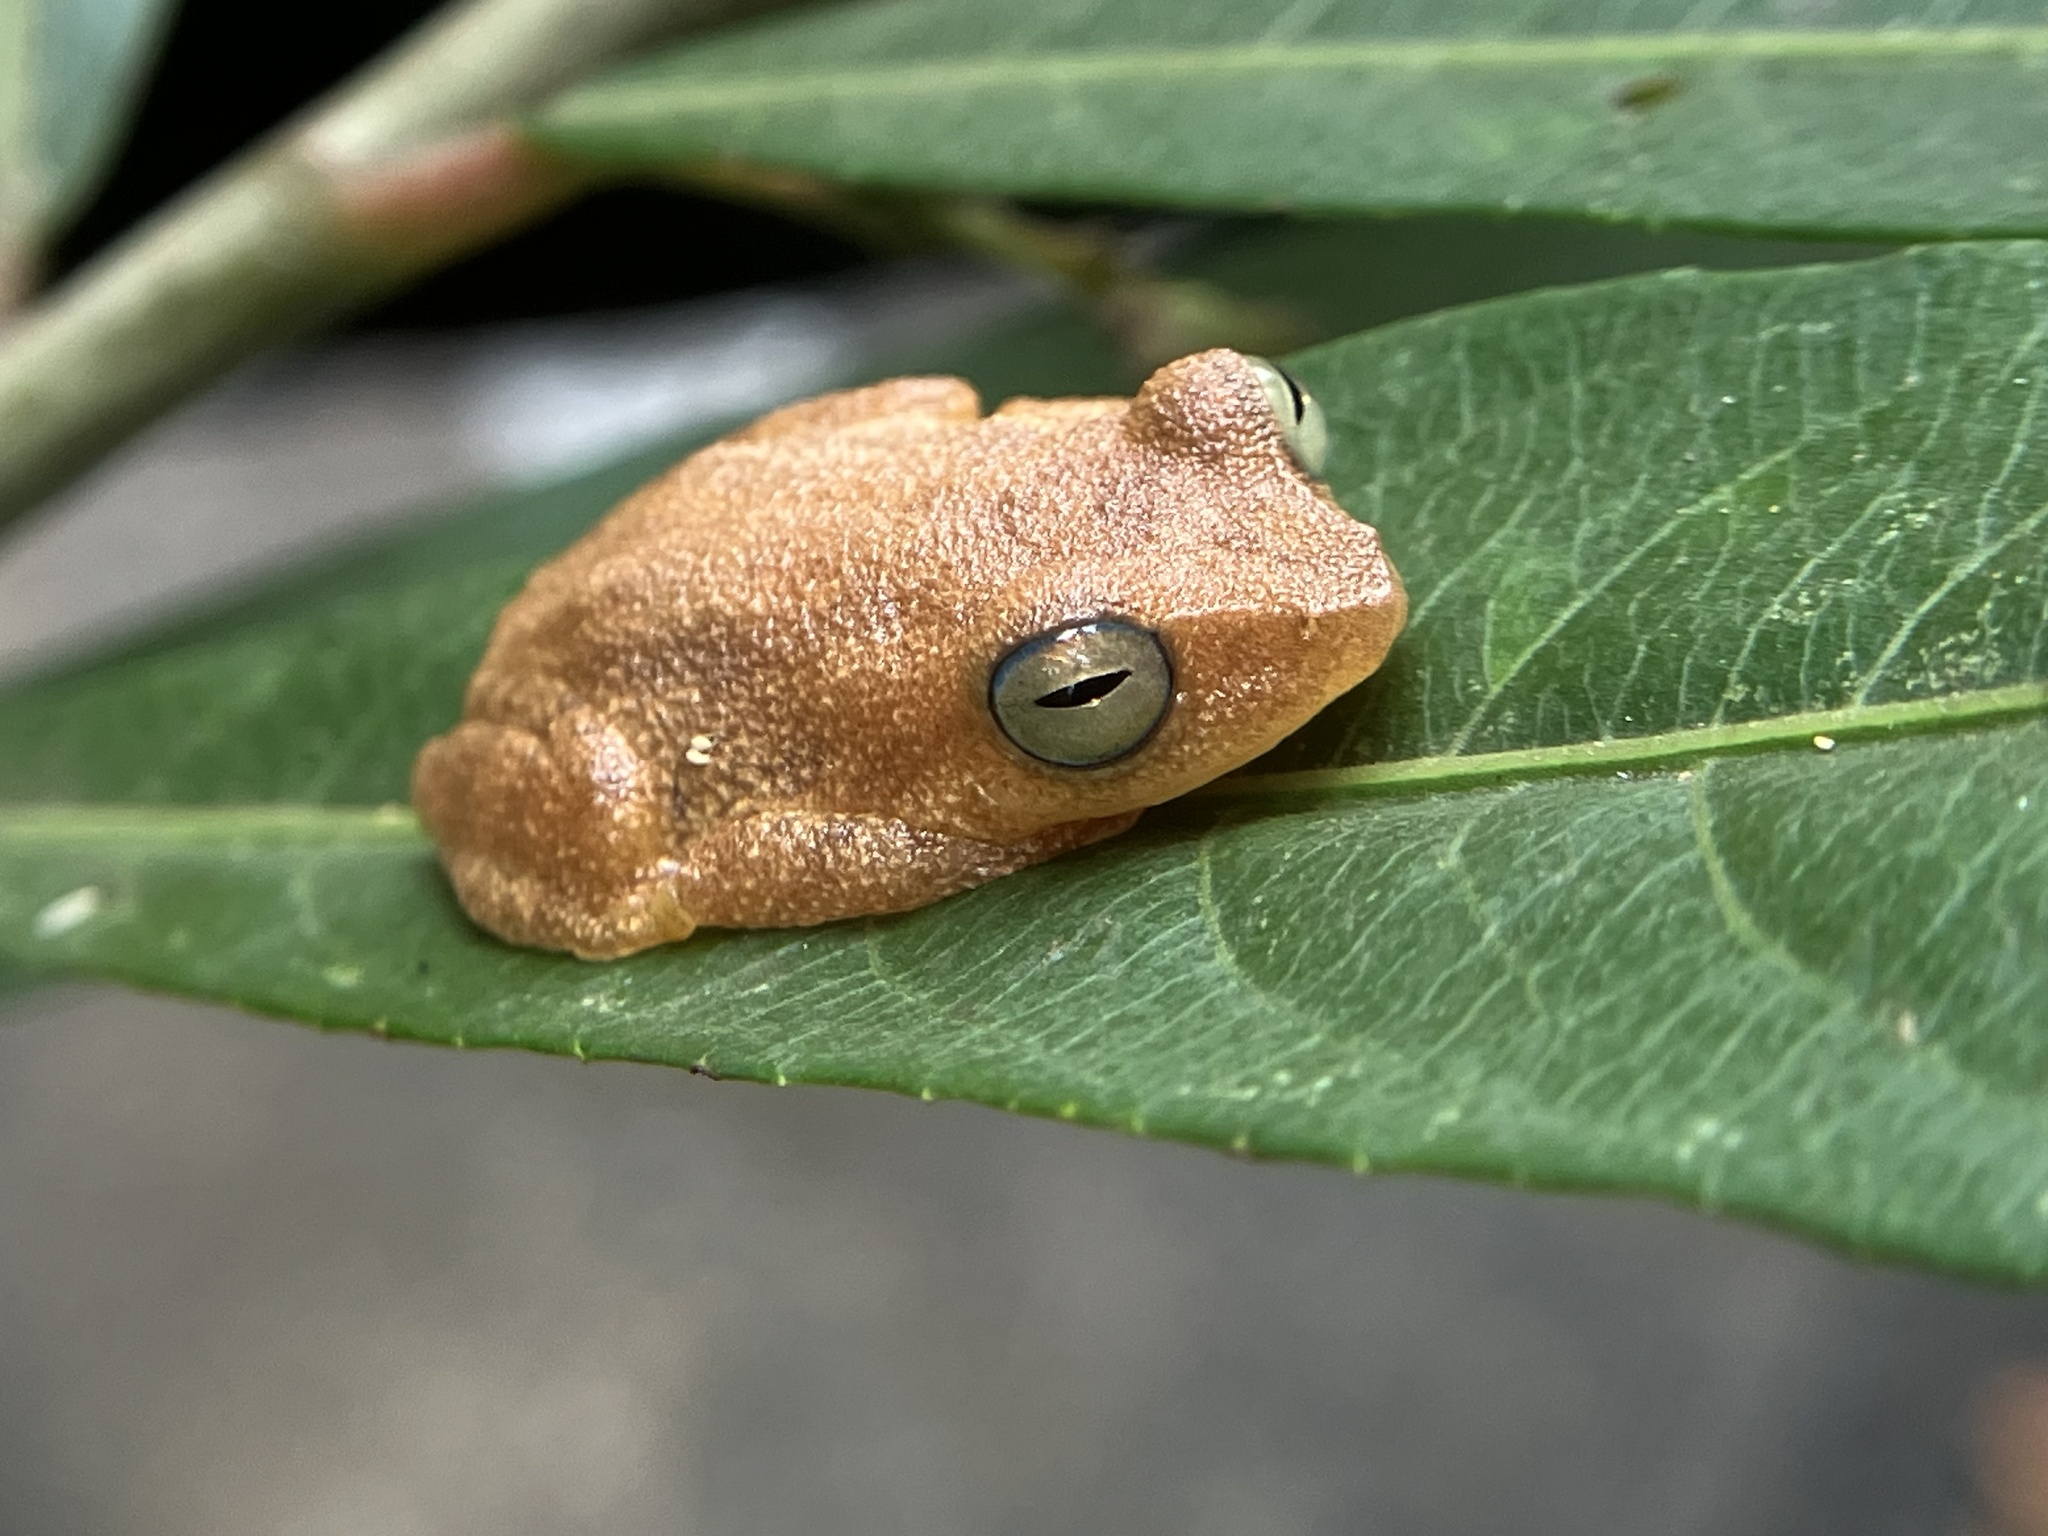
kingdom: Animalia
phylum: Chordata
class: Amphibia
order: Anura
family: Rhacophoridae
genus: Raorchestes
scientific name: Raorchestes luteolus
